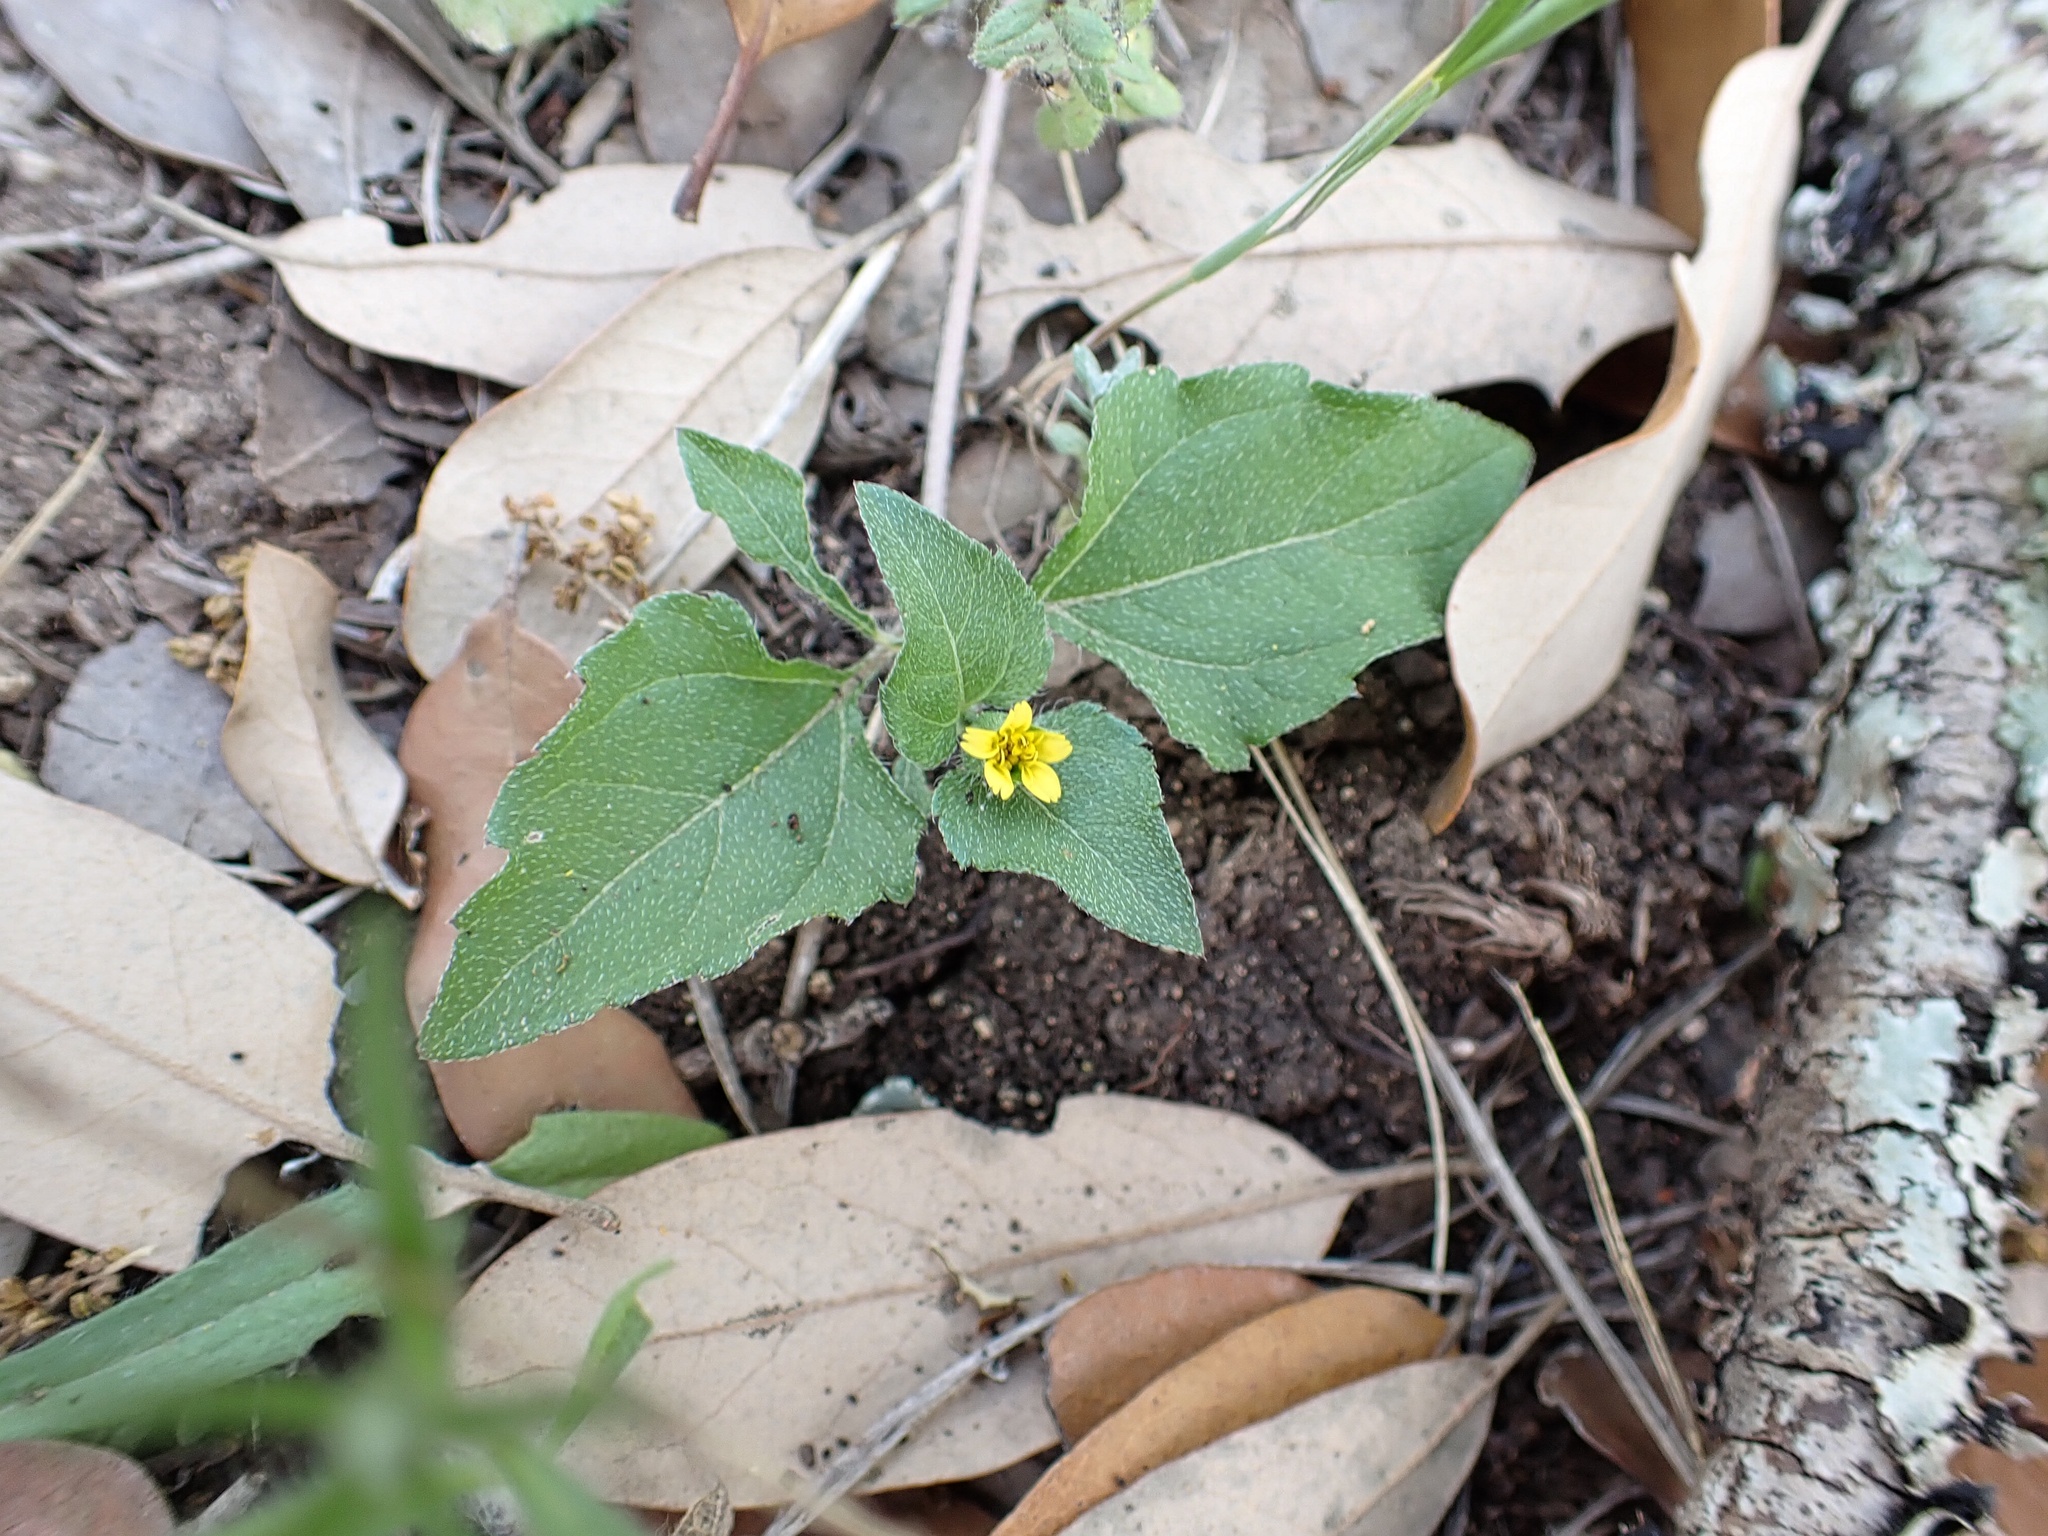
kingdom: Plantae
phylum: Tracheophyta
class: Magnoliopsida
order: Asterales
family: Asteraceae
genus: Calyptocarpus
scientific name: Calyptocarpus vialis
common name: Straggler daisy
